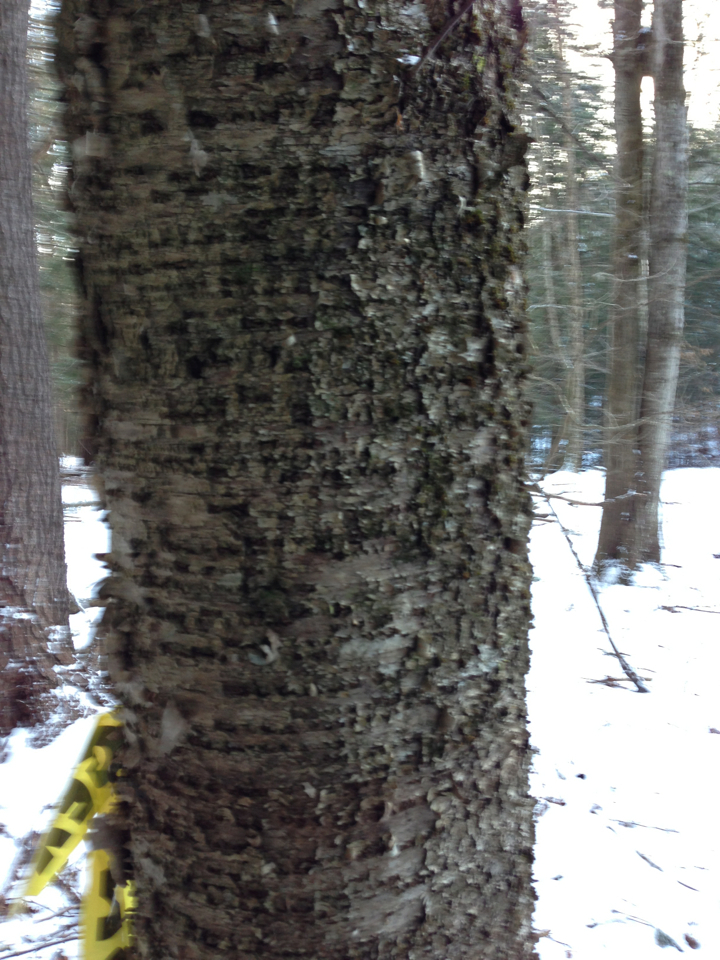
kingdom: Plantae
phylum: Tracheophyta
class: Magnoliopsida
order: Fagales
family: Betulaceae
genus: Betula
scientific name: Betula alleghaniensis
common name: Yellow birch
